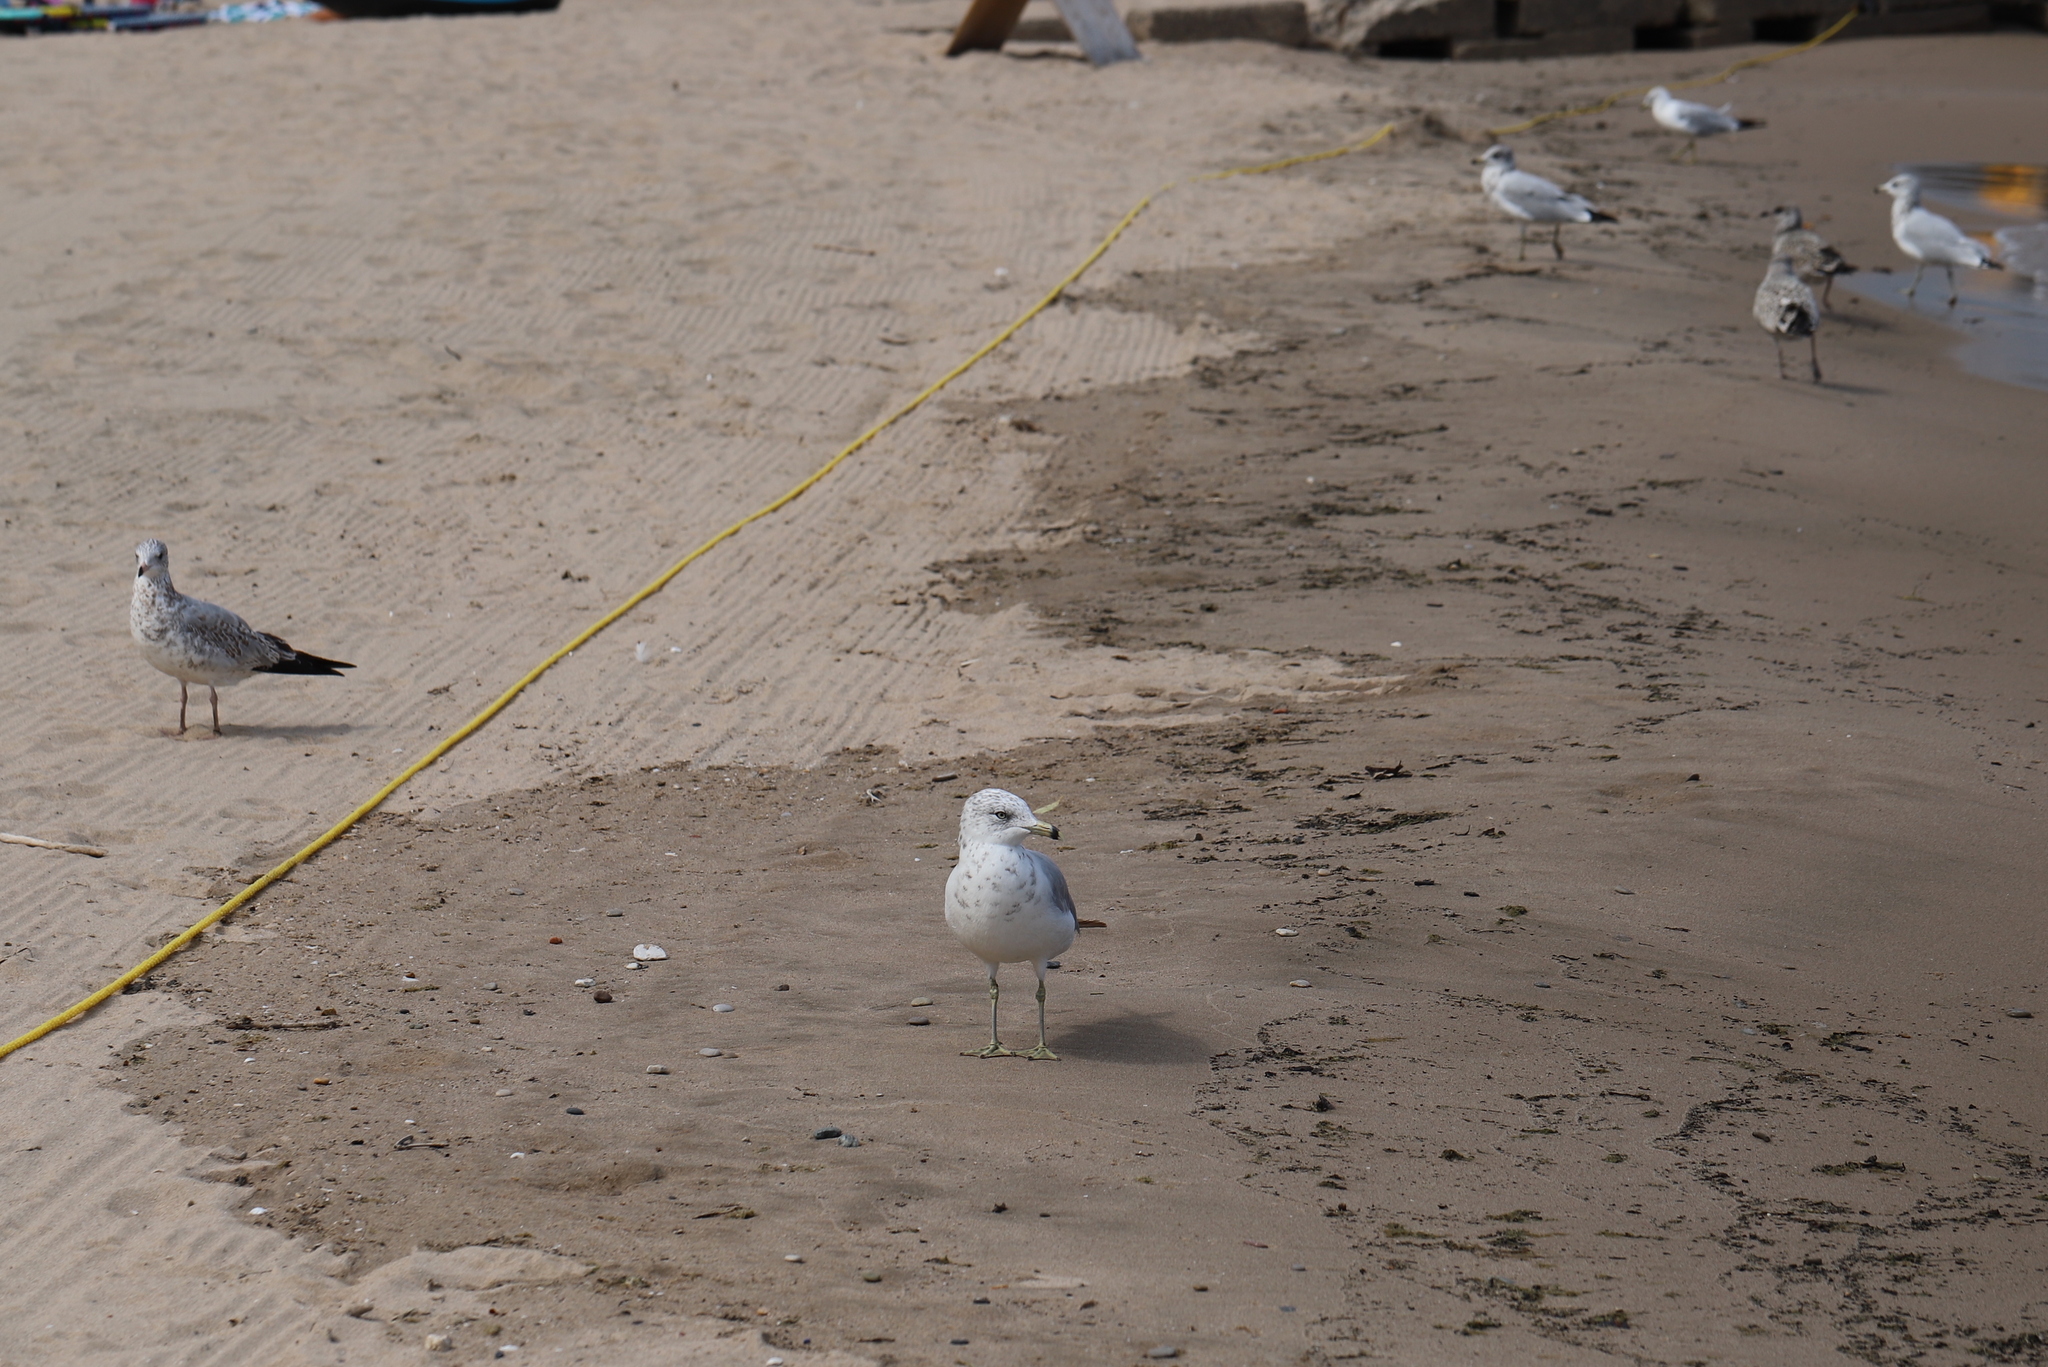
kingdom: Animalia
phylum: Chordata
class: Aves
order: Charadriiformes
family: Laridae
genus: Larus
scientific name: Larus delawarensis
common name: Ring-billed gull
